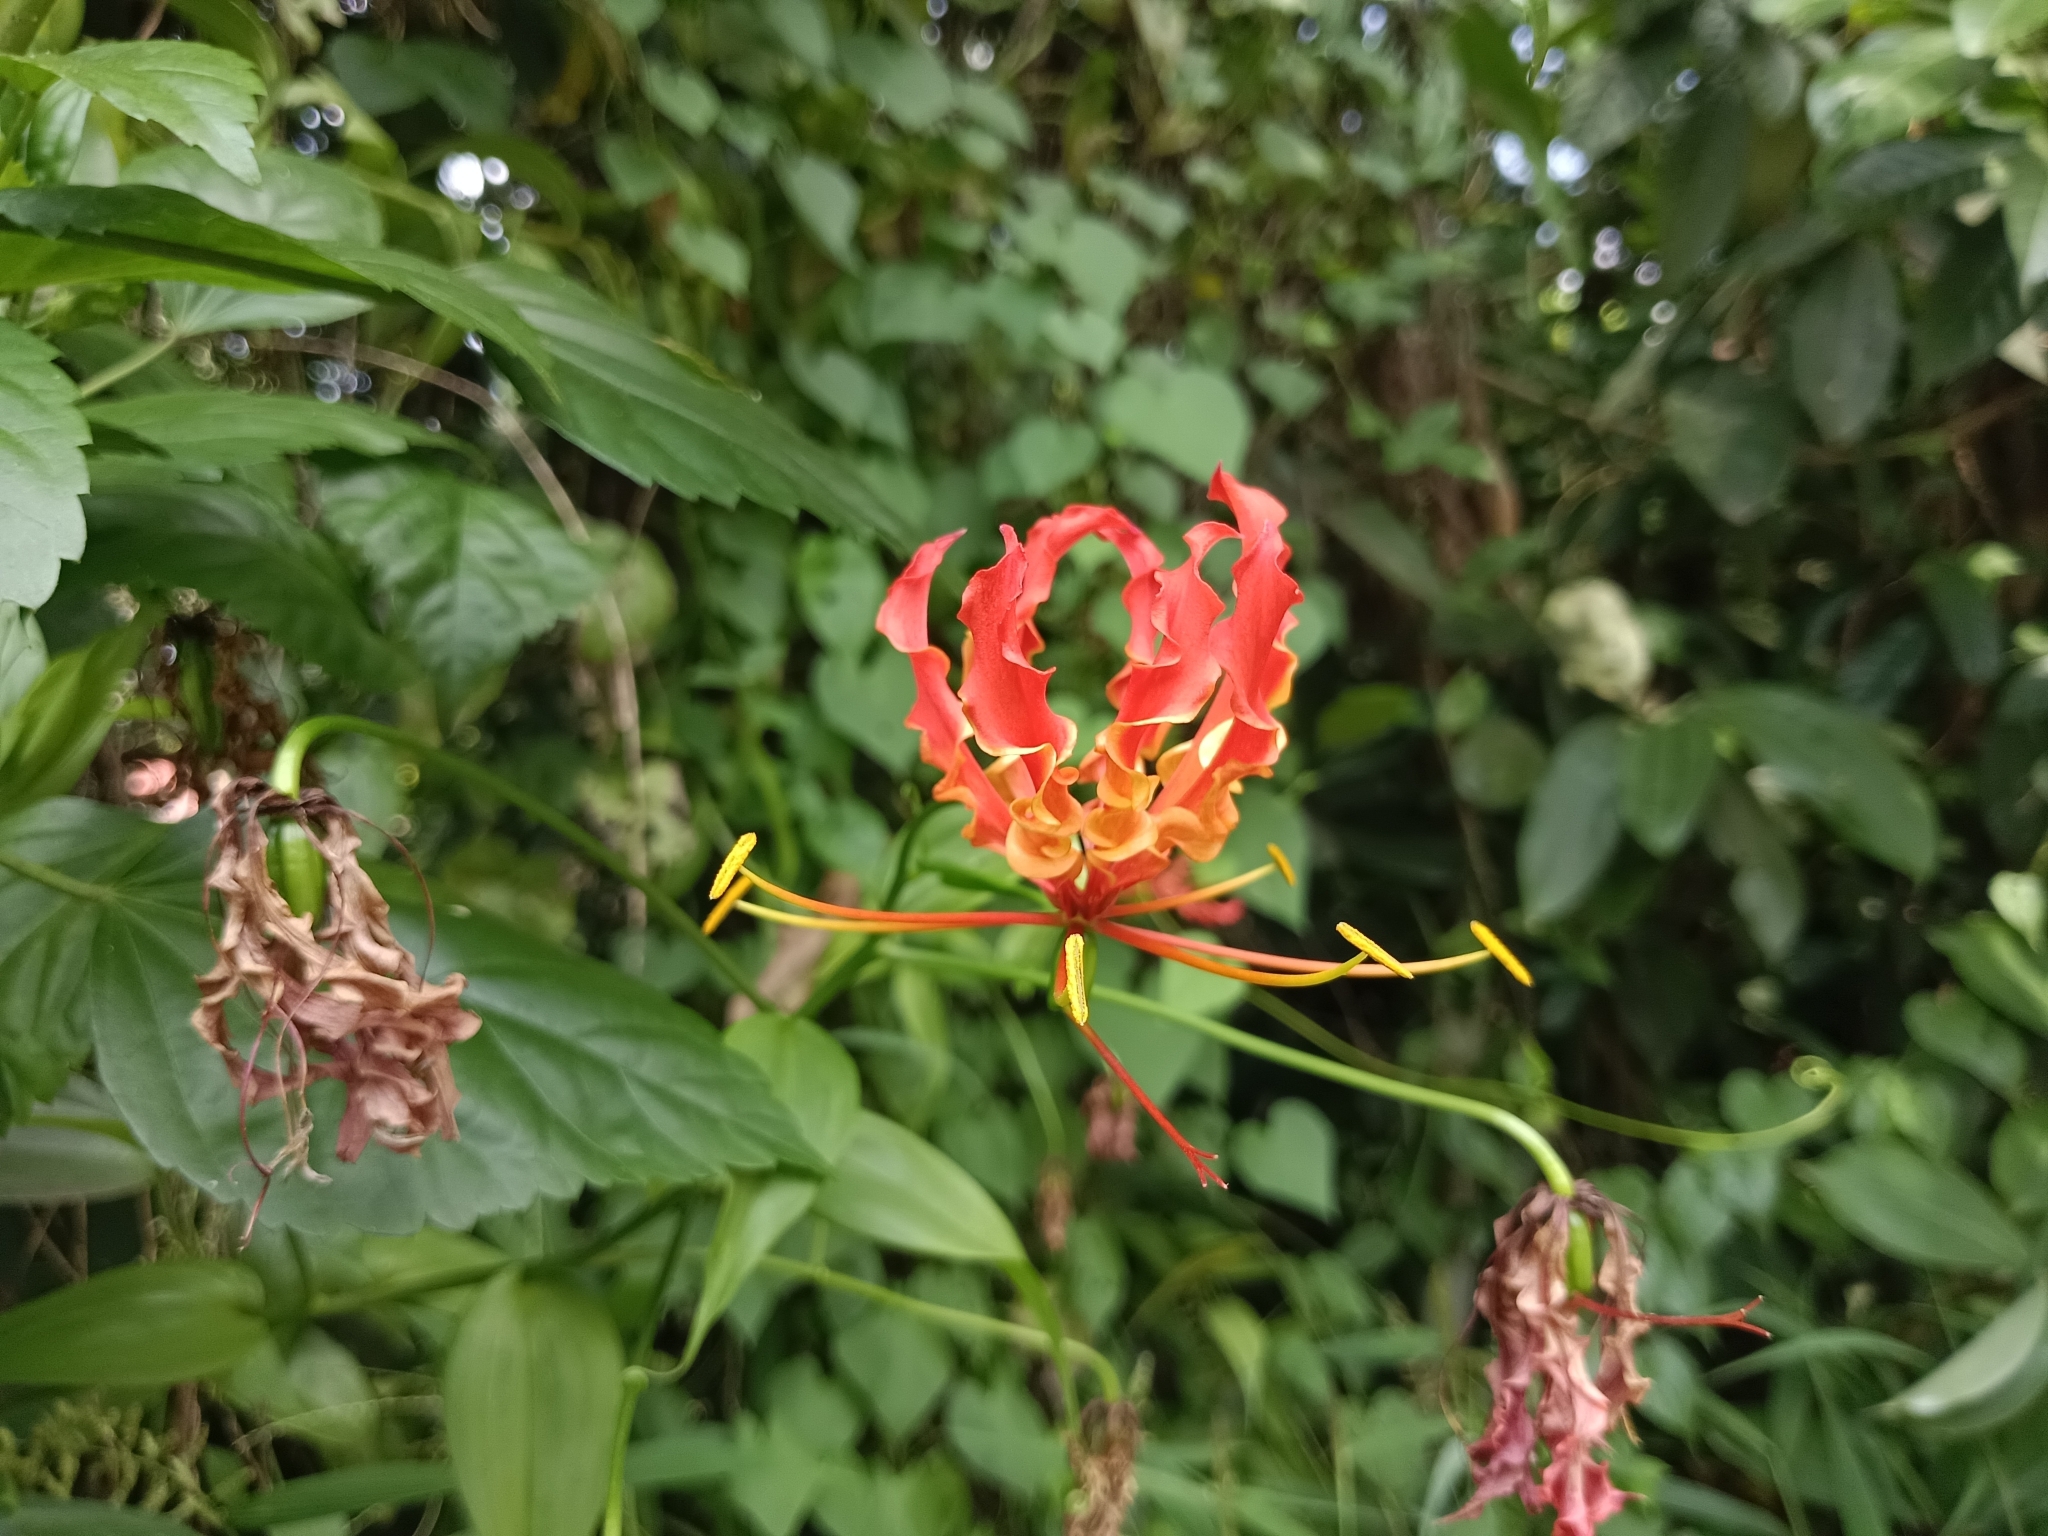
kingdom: Plantae
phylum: Tracheophyta
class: Liliopsida
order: Liliales
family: Colchicaceae
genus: Gloriosa
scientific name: Gloriosa superba
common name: Flame lily
